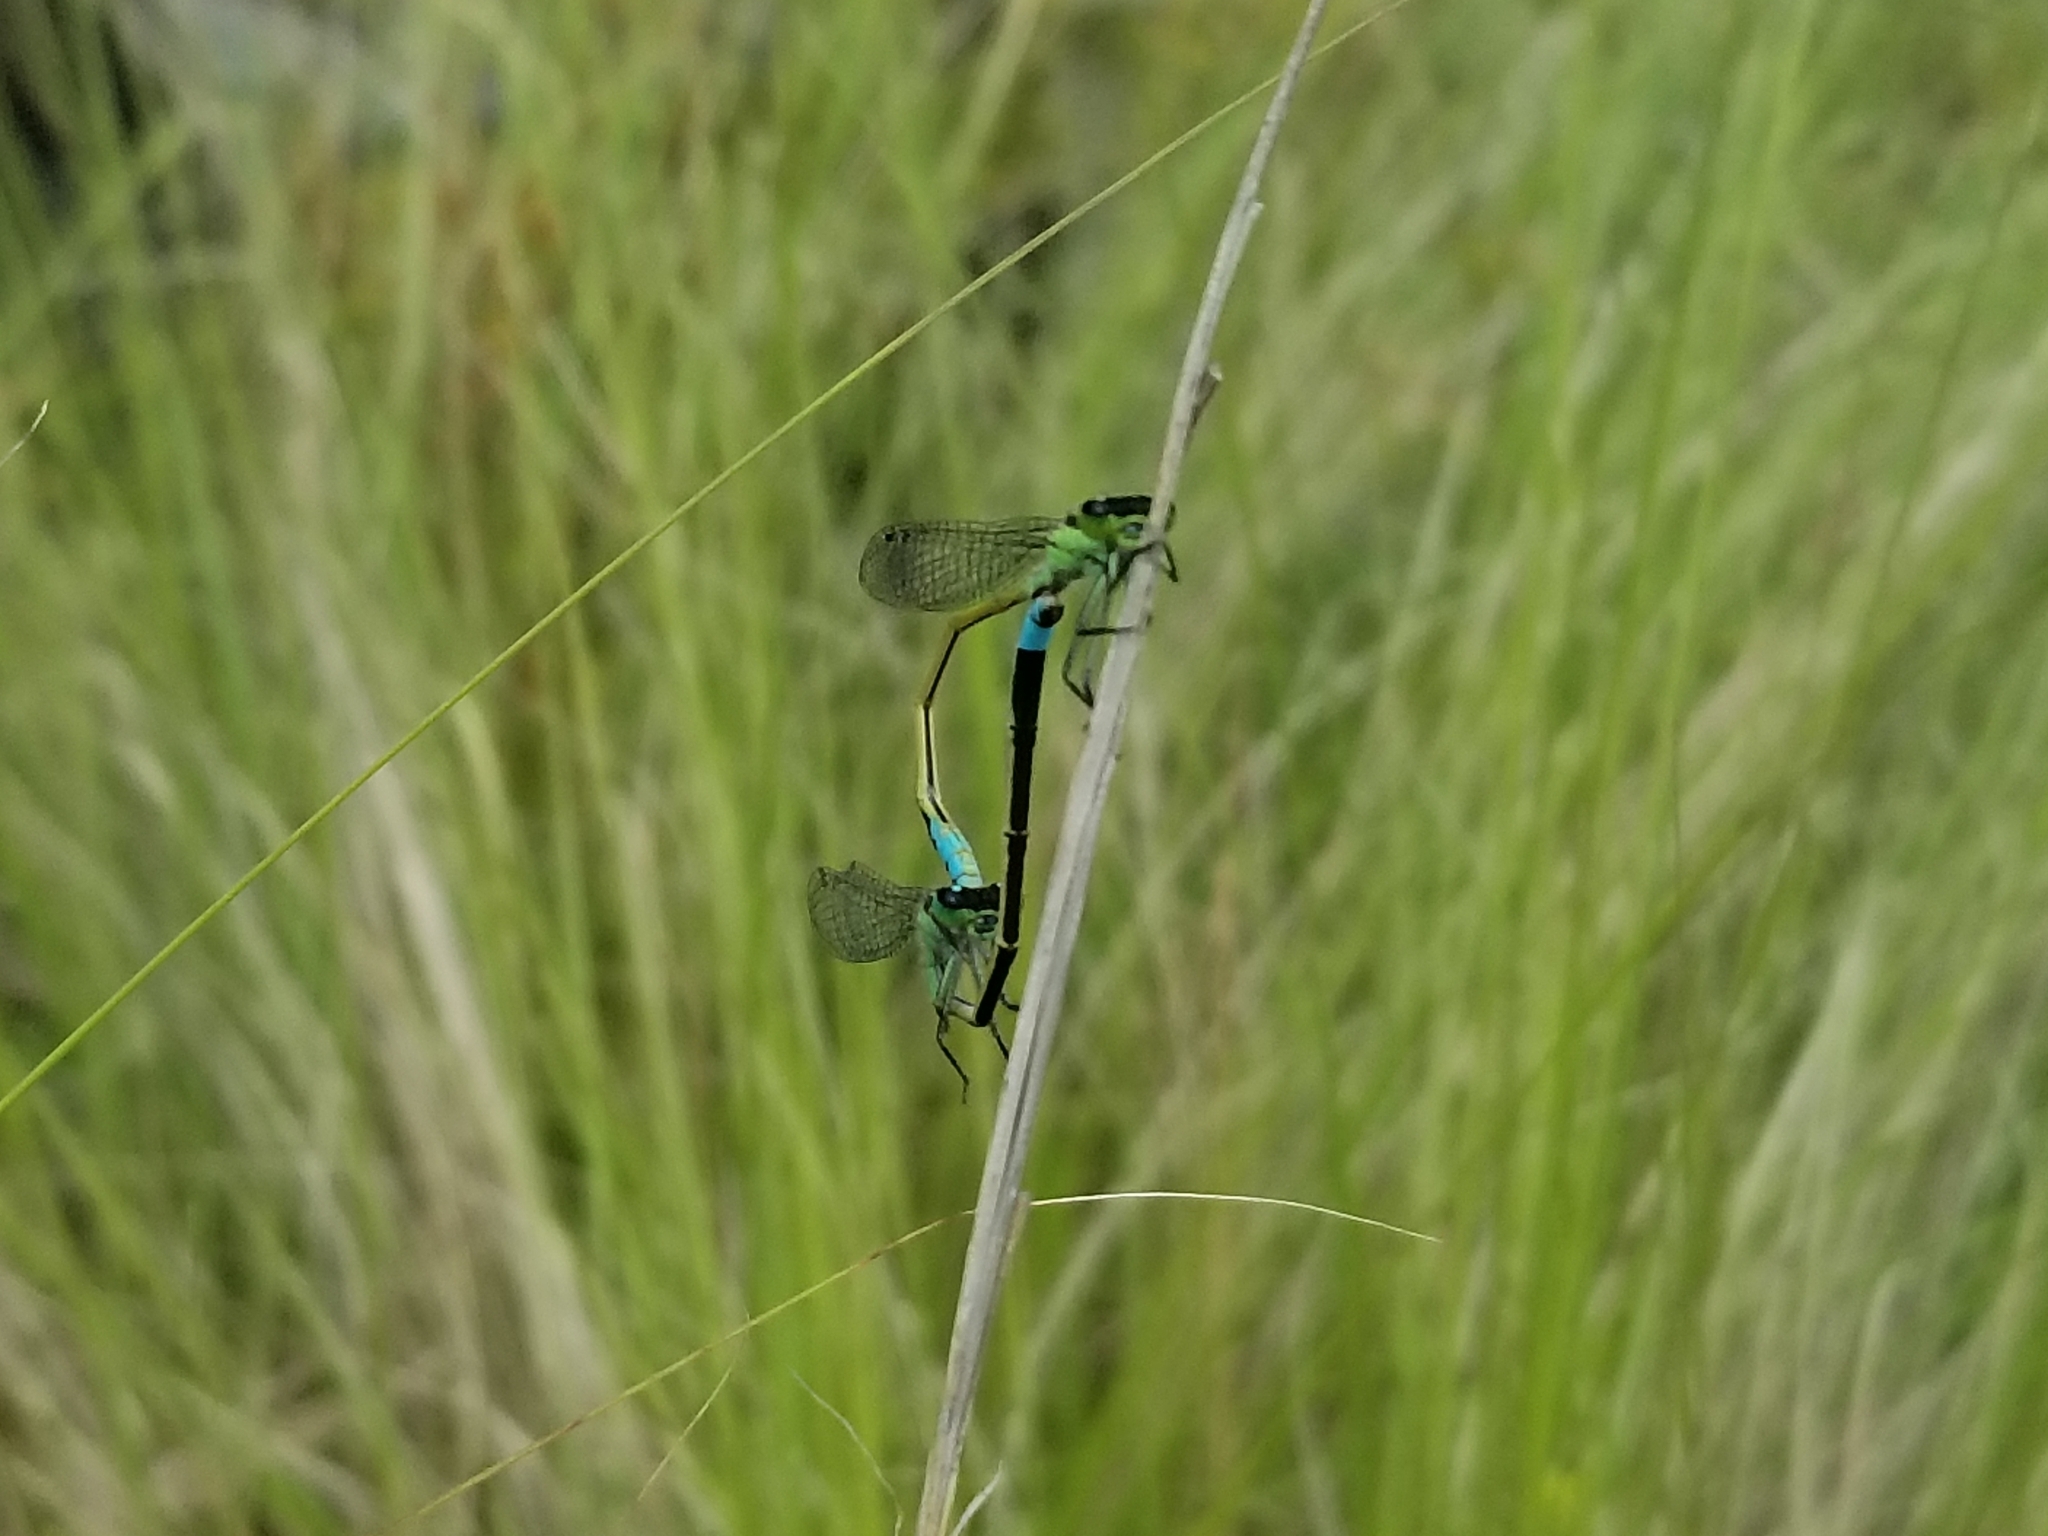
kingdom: Animalia
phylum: Arthropoda
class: Insecta
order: Odonata
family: Coenagrionidae
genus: Ischnura
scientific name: Ischnura ramburii
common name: Rambur's forktail
